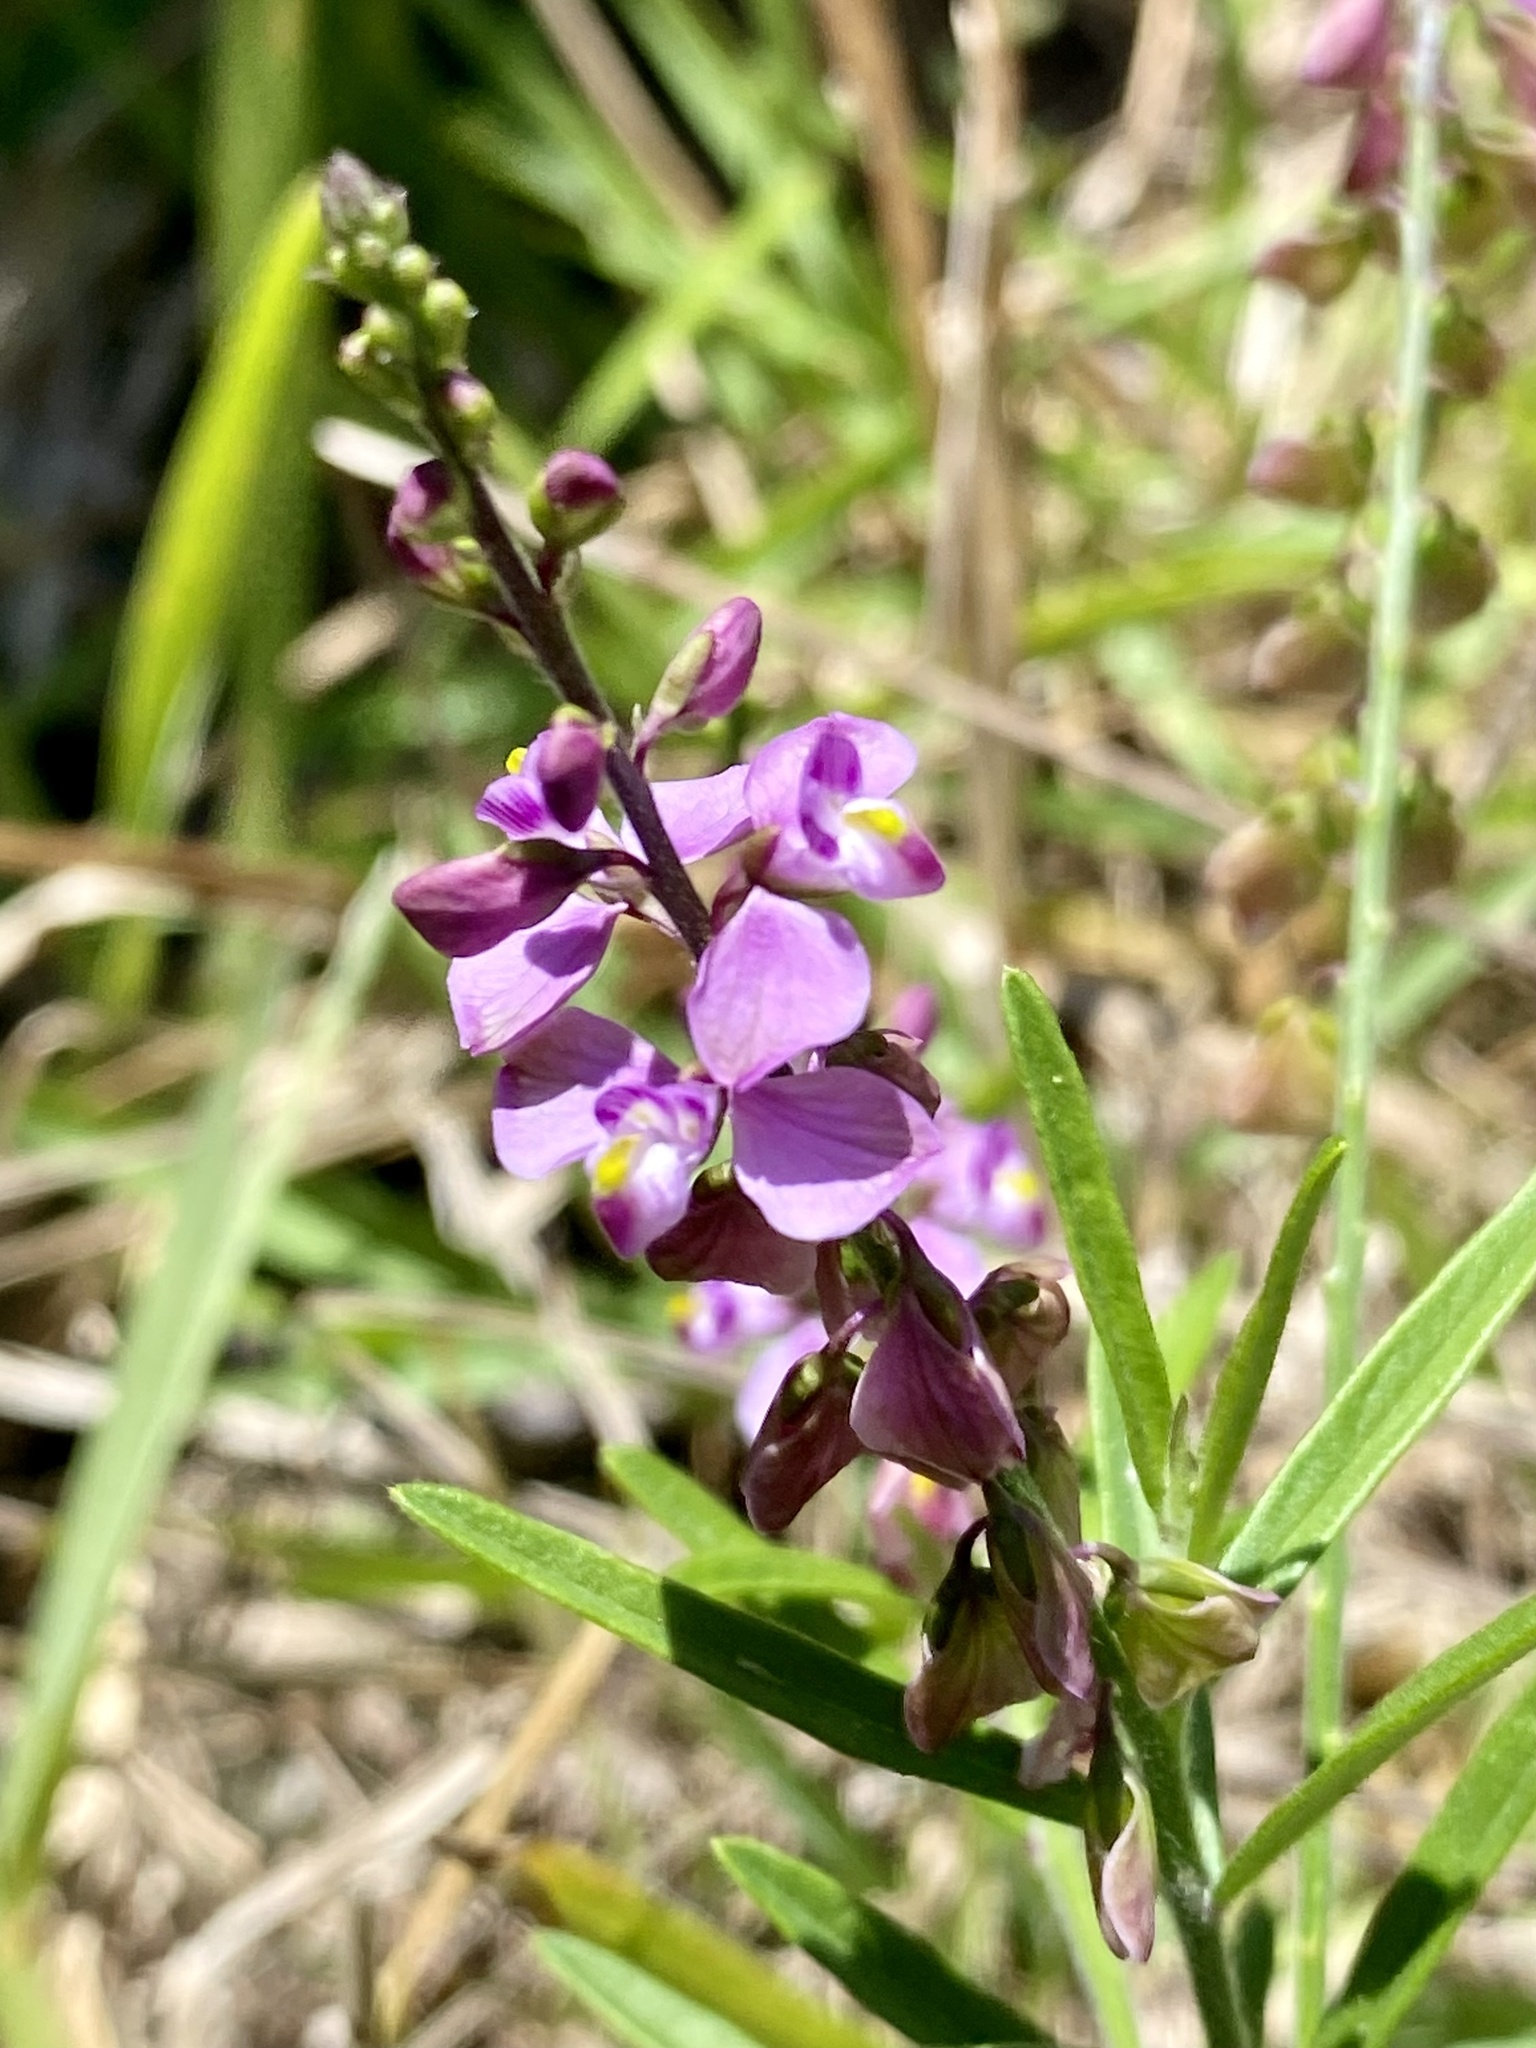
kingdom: Plantae
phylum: Tracheophyta
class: Magnoliopsida
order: Fabales
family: Polygalaceae
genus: Asemeia
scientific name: Asemeia grandiflora
